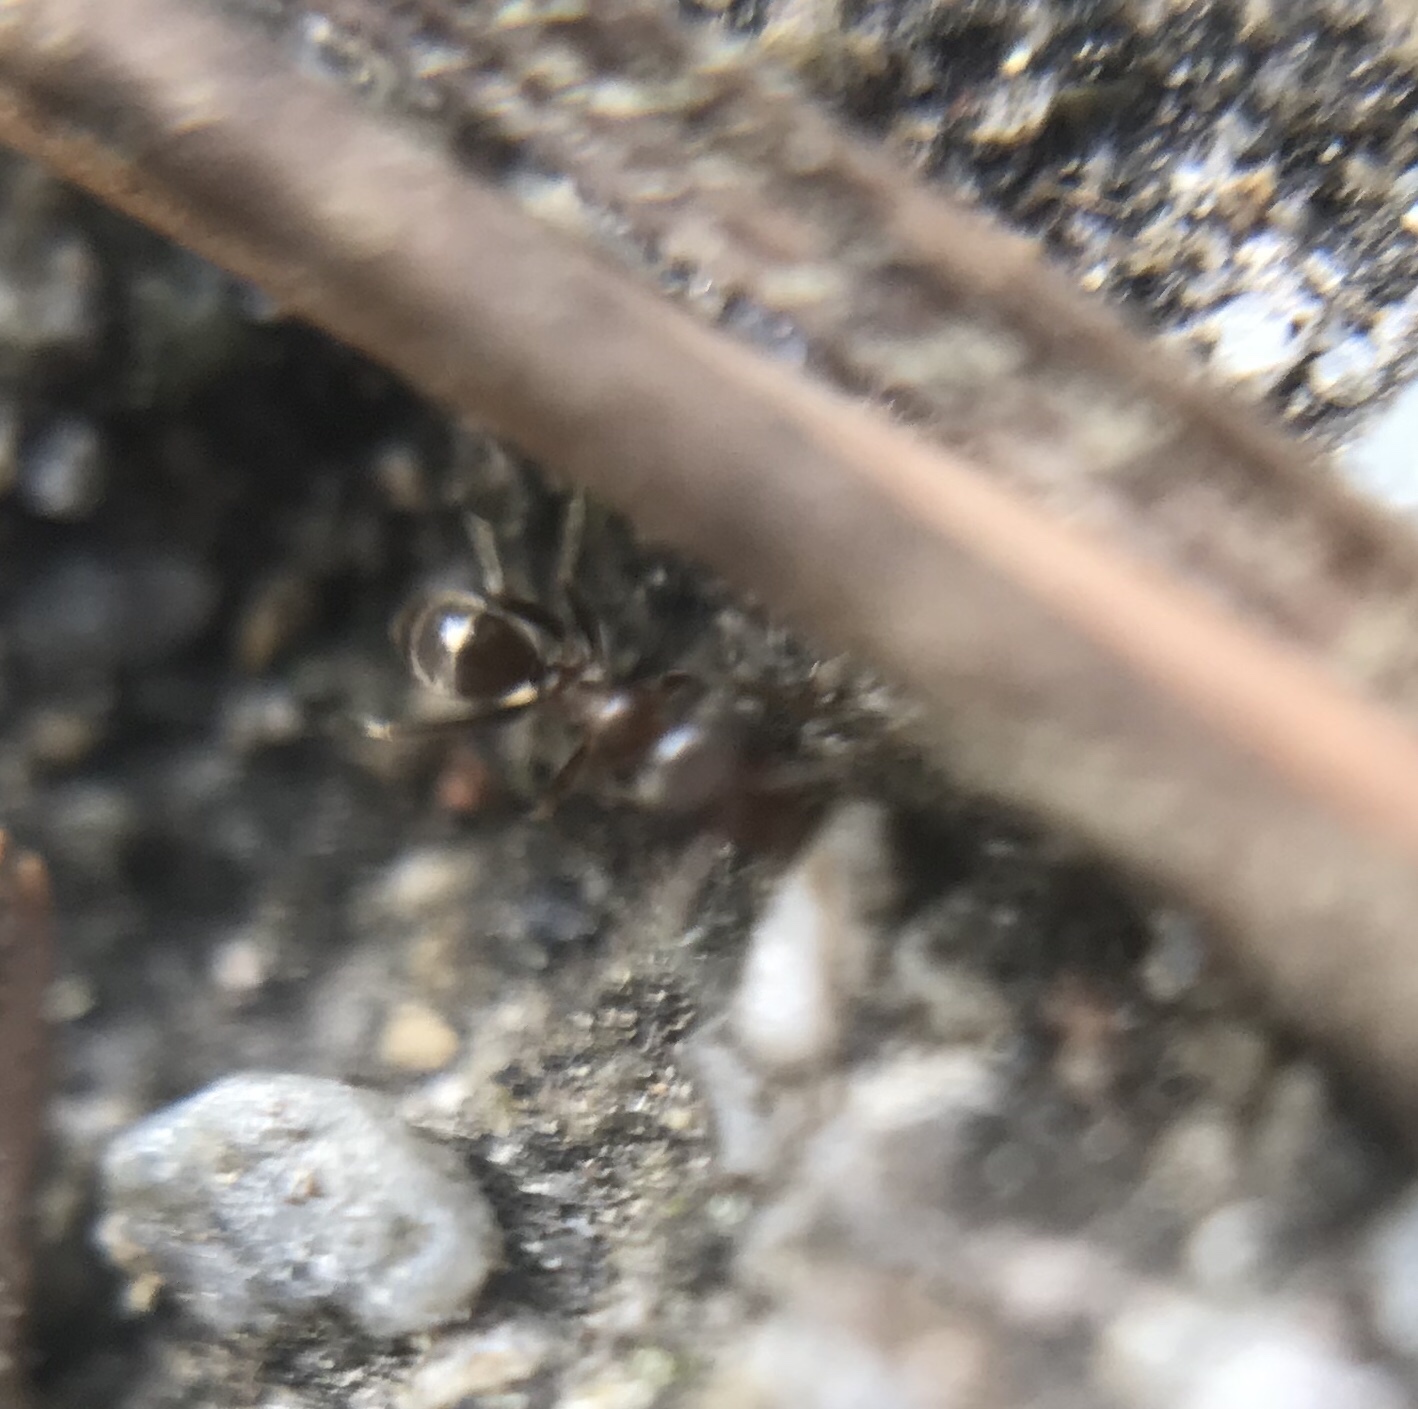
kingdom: Animalia
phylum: Arthropoda
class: Insecta
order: Hymenoptera
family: Formicidae
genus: Linepithema
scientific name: Linepithema humile
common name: Argentine ant
